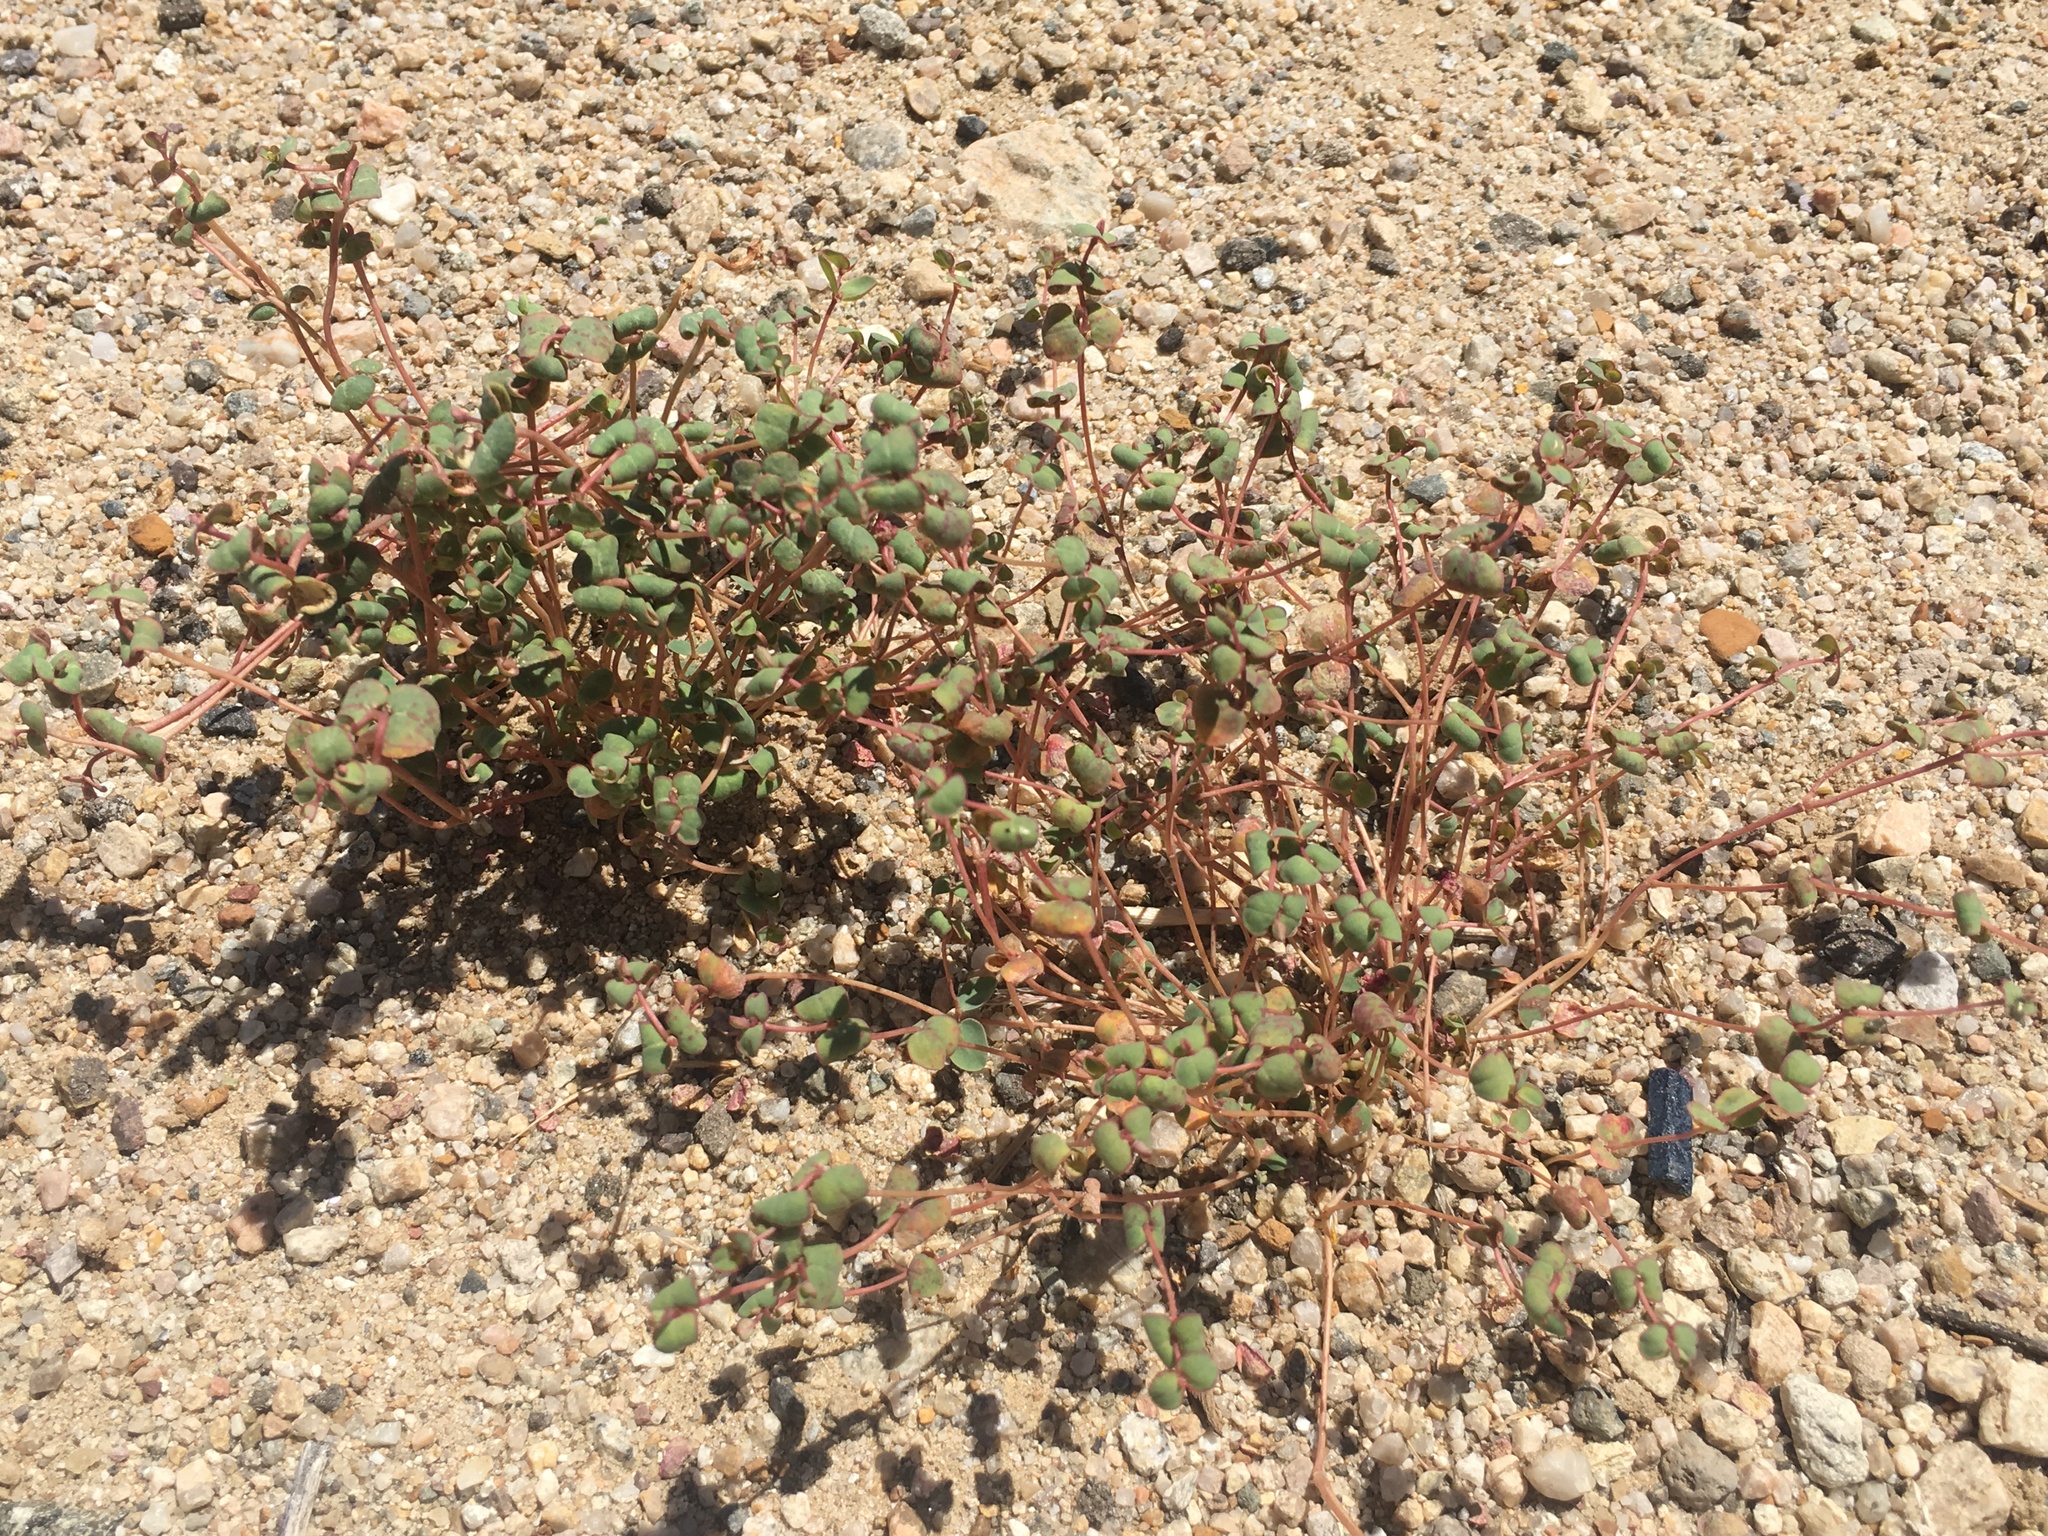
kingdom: Fungi
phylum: Basidiomycota
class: Pucciniomycetes
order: Pucciniales
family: Pucciniaceae
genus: Uromyces
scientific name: Uromyces proeminens
